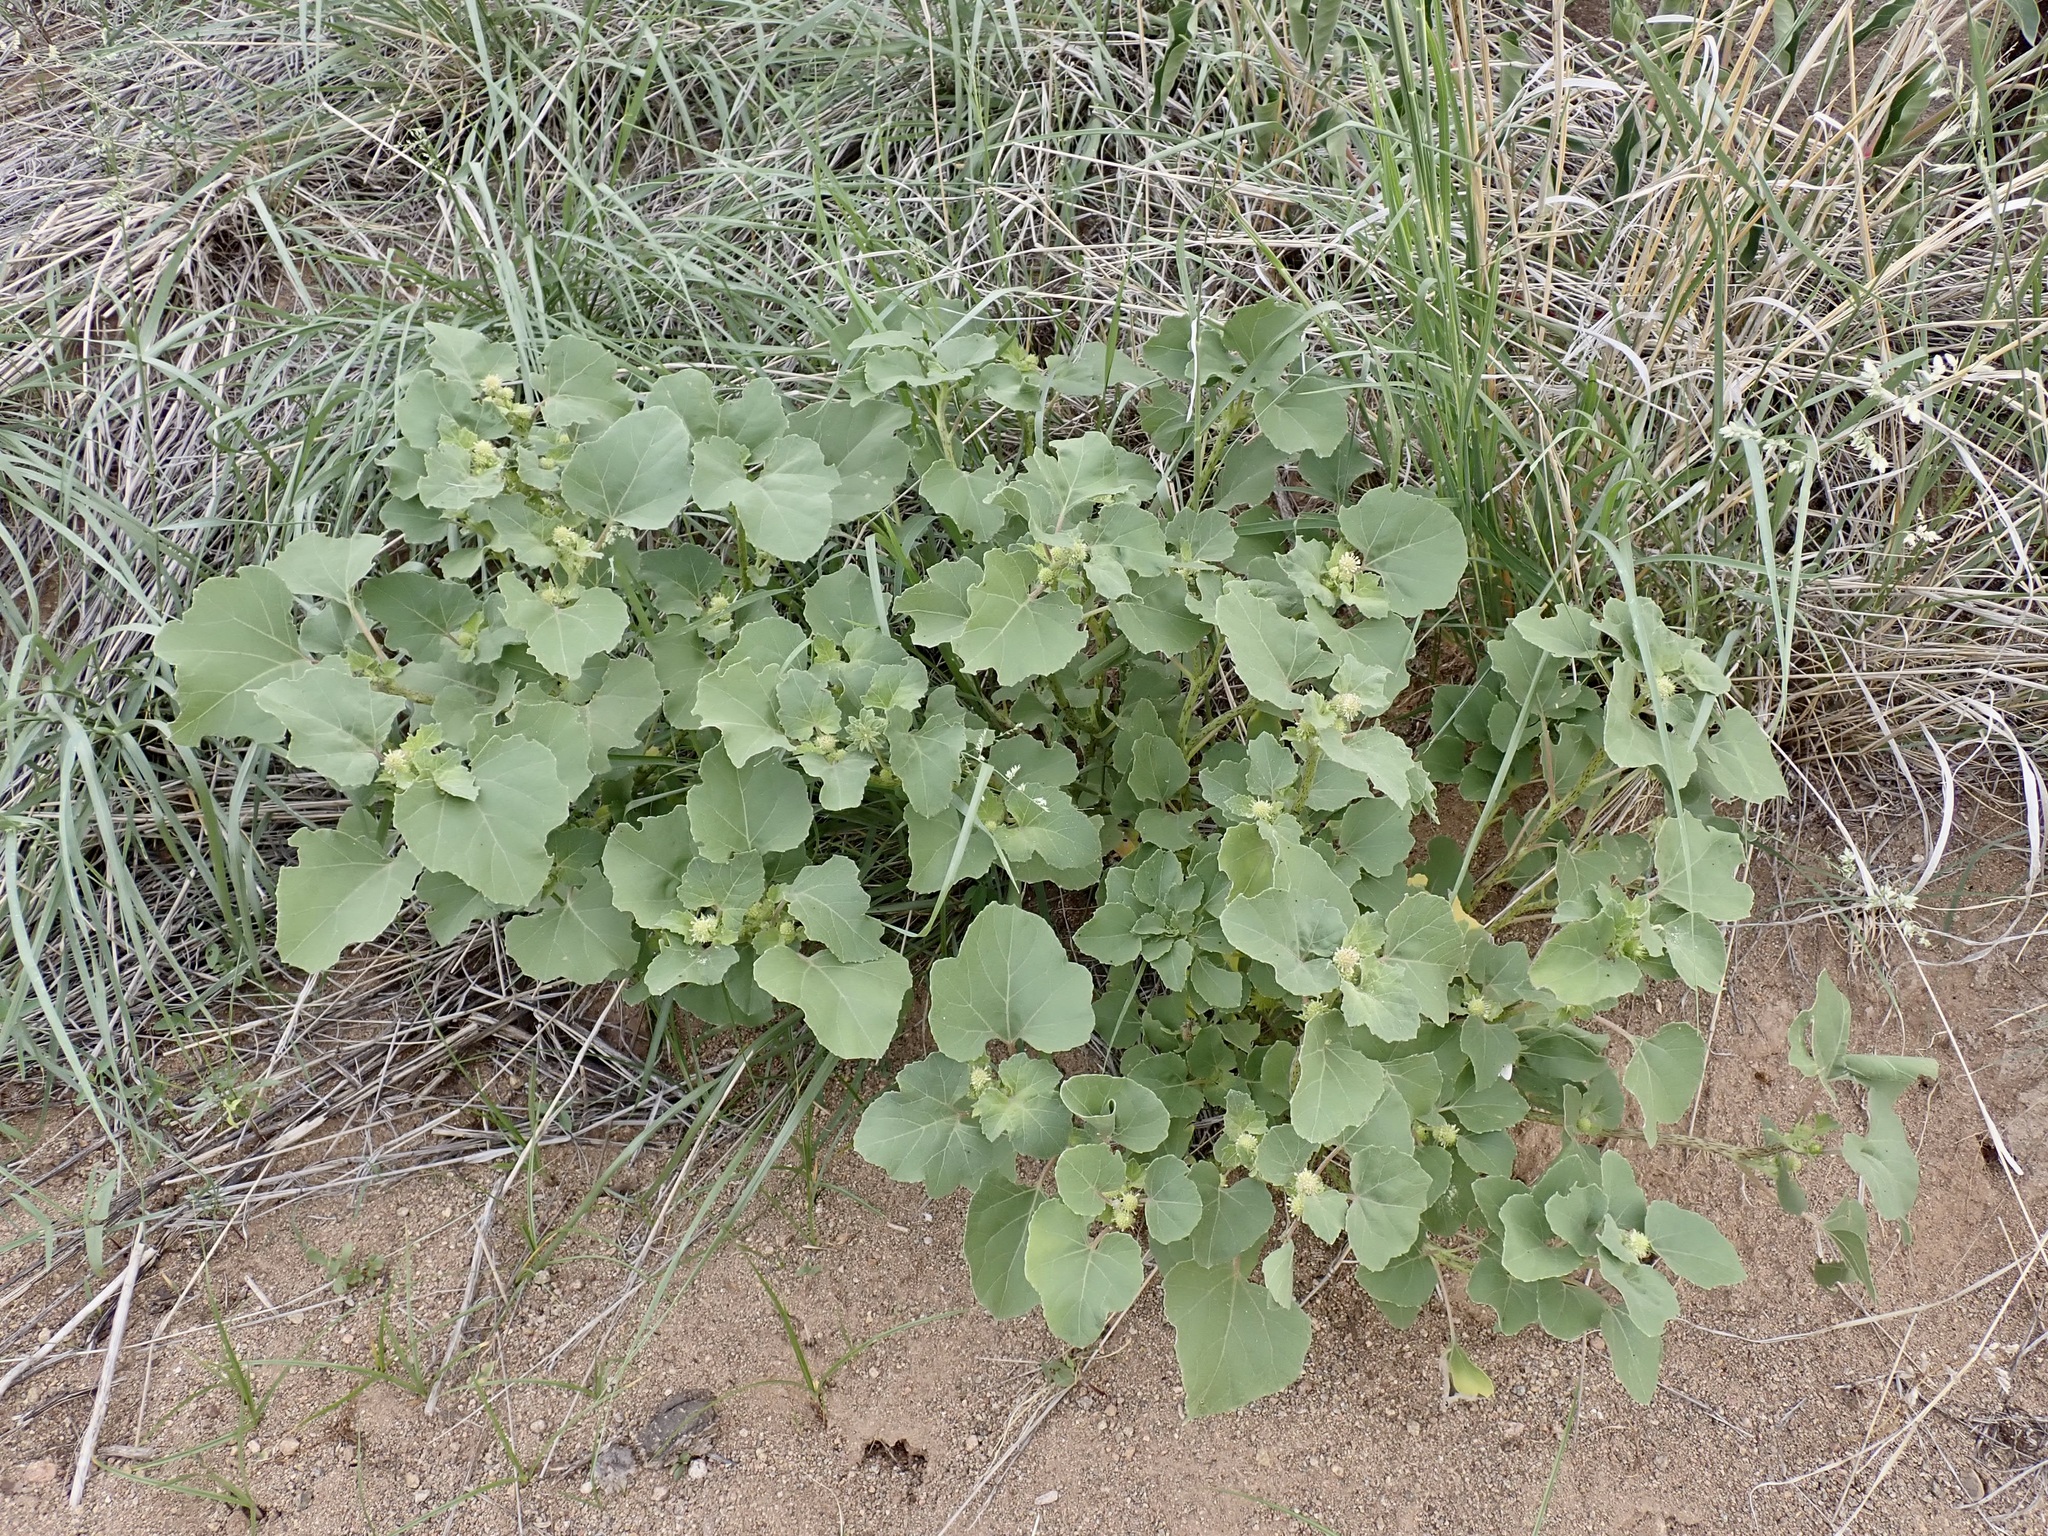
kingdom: Plantae
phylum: Tracheophyta
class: Magnoliopsida
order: Asterales
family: Asteraceae
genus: Xanthium
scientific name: Xanthium strumarium
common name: Rough cocklebur
